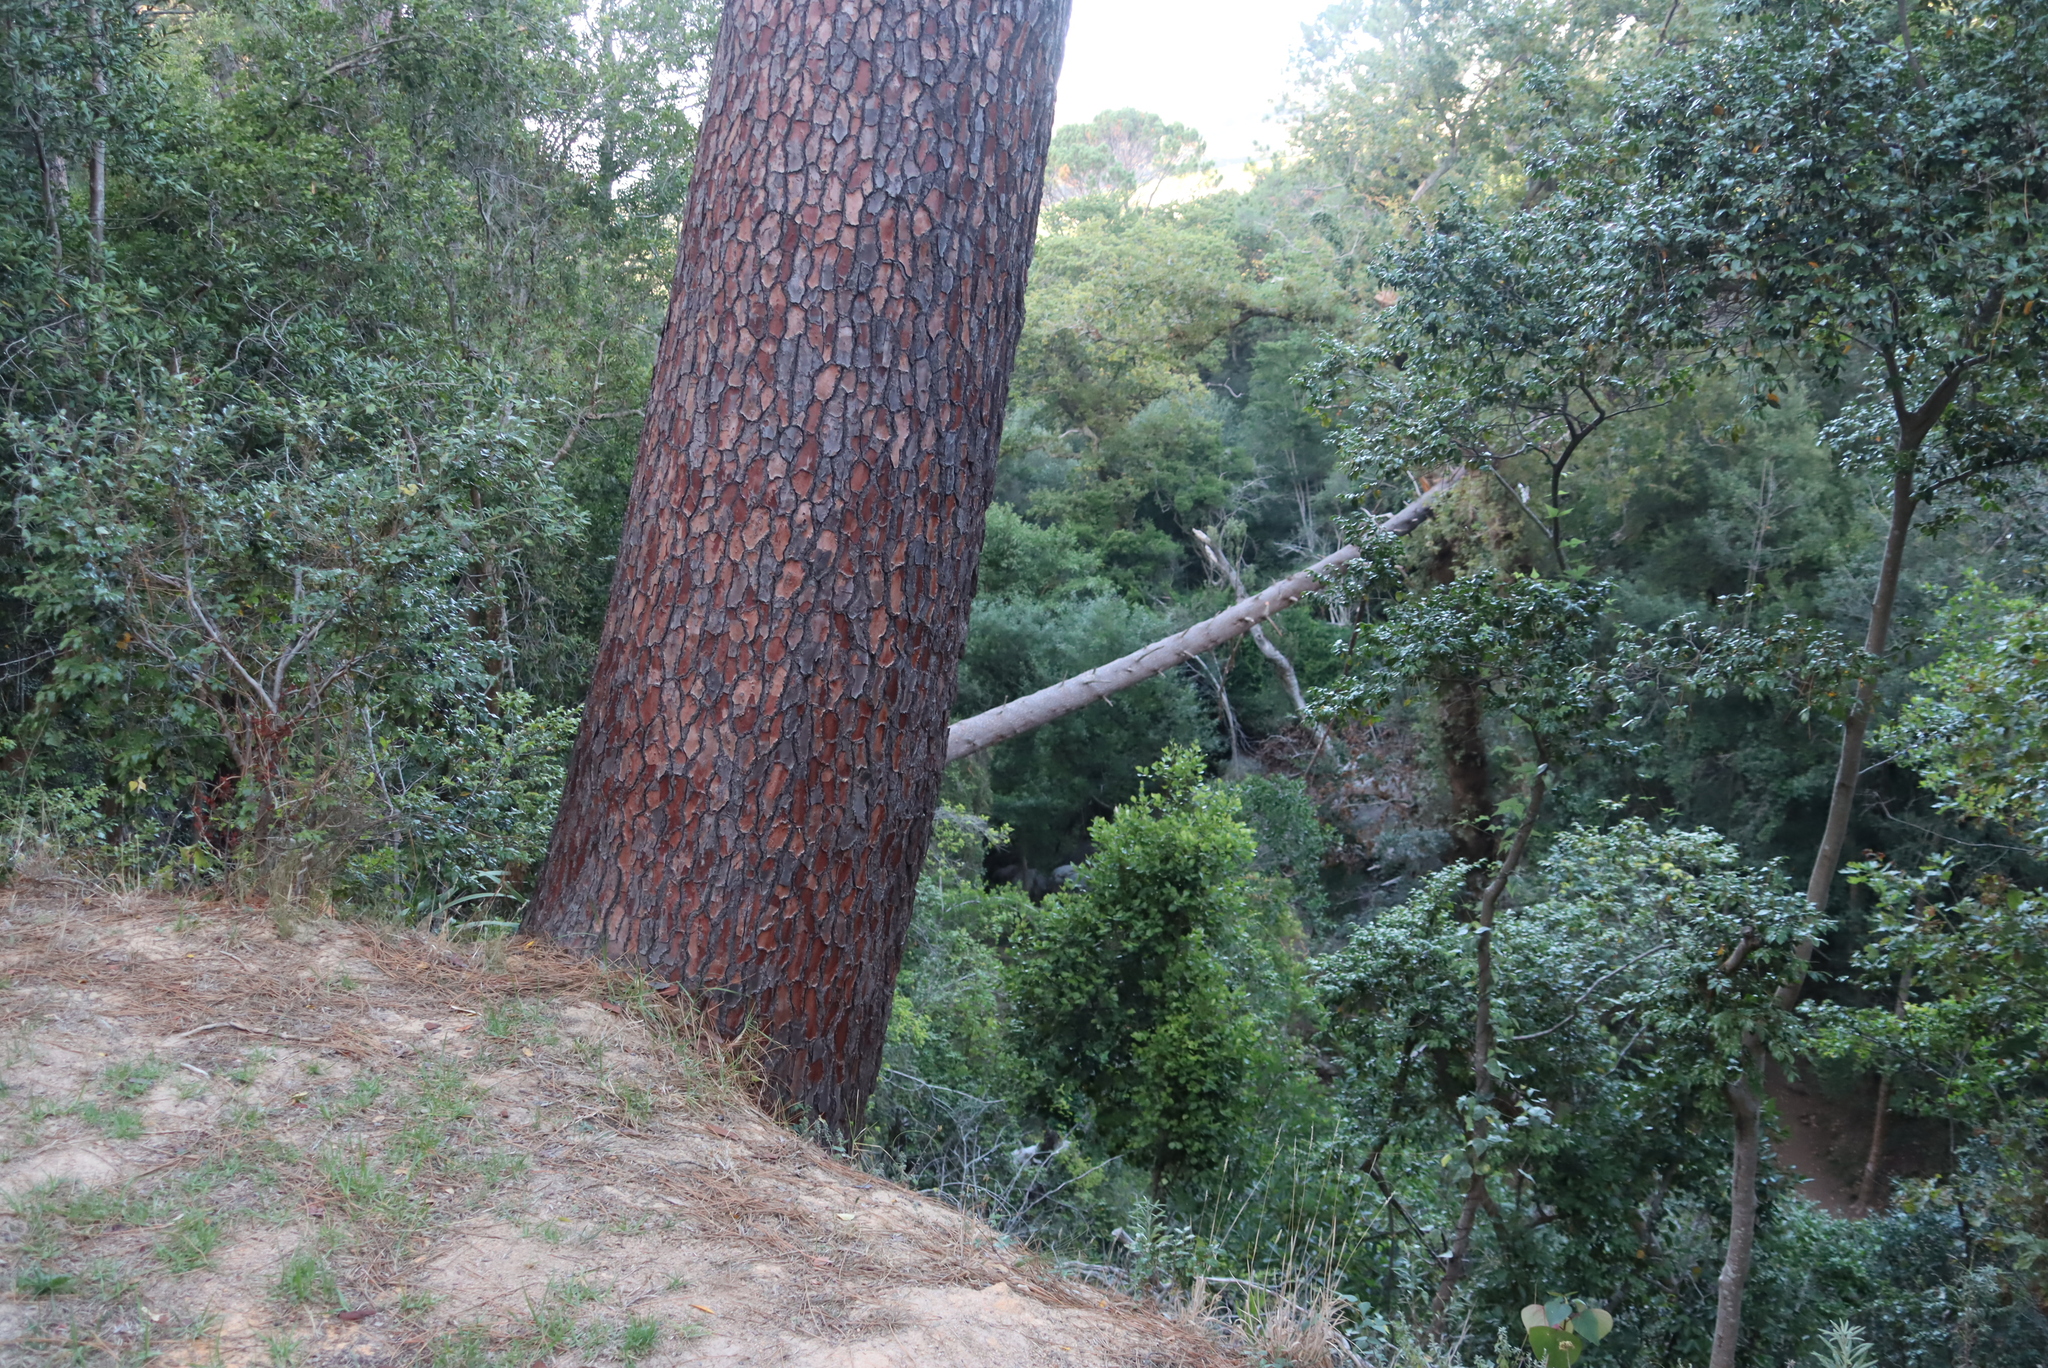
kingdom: Plantae
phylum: Tracheophyta
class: Pinopsida
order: Pinales
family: Pinaceae
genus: Pinus
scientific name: Pinus pinea
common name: Italian stone pine
